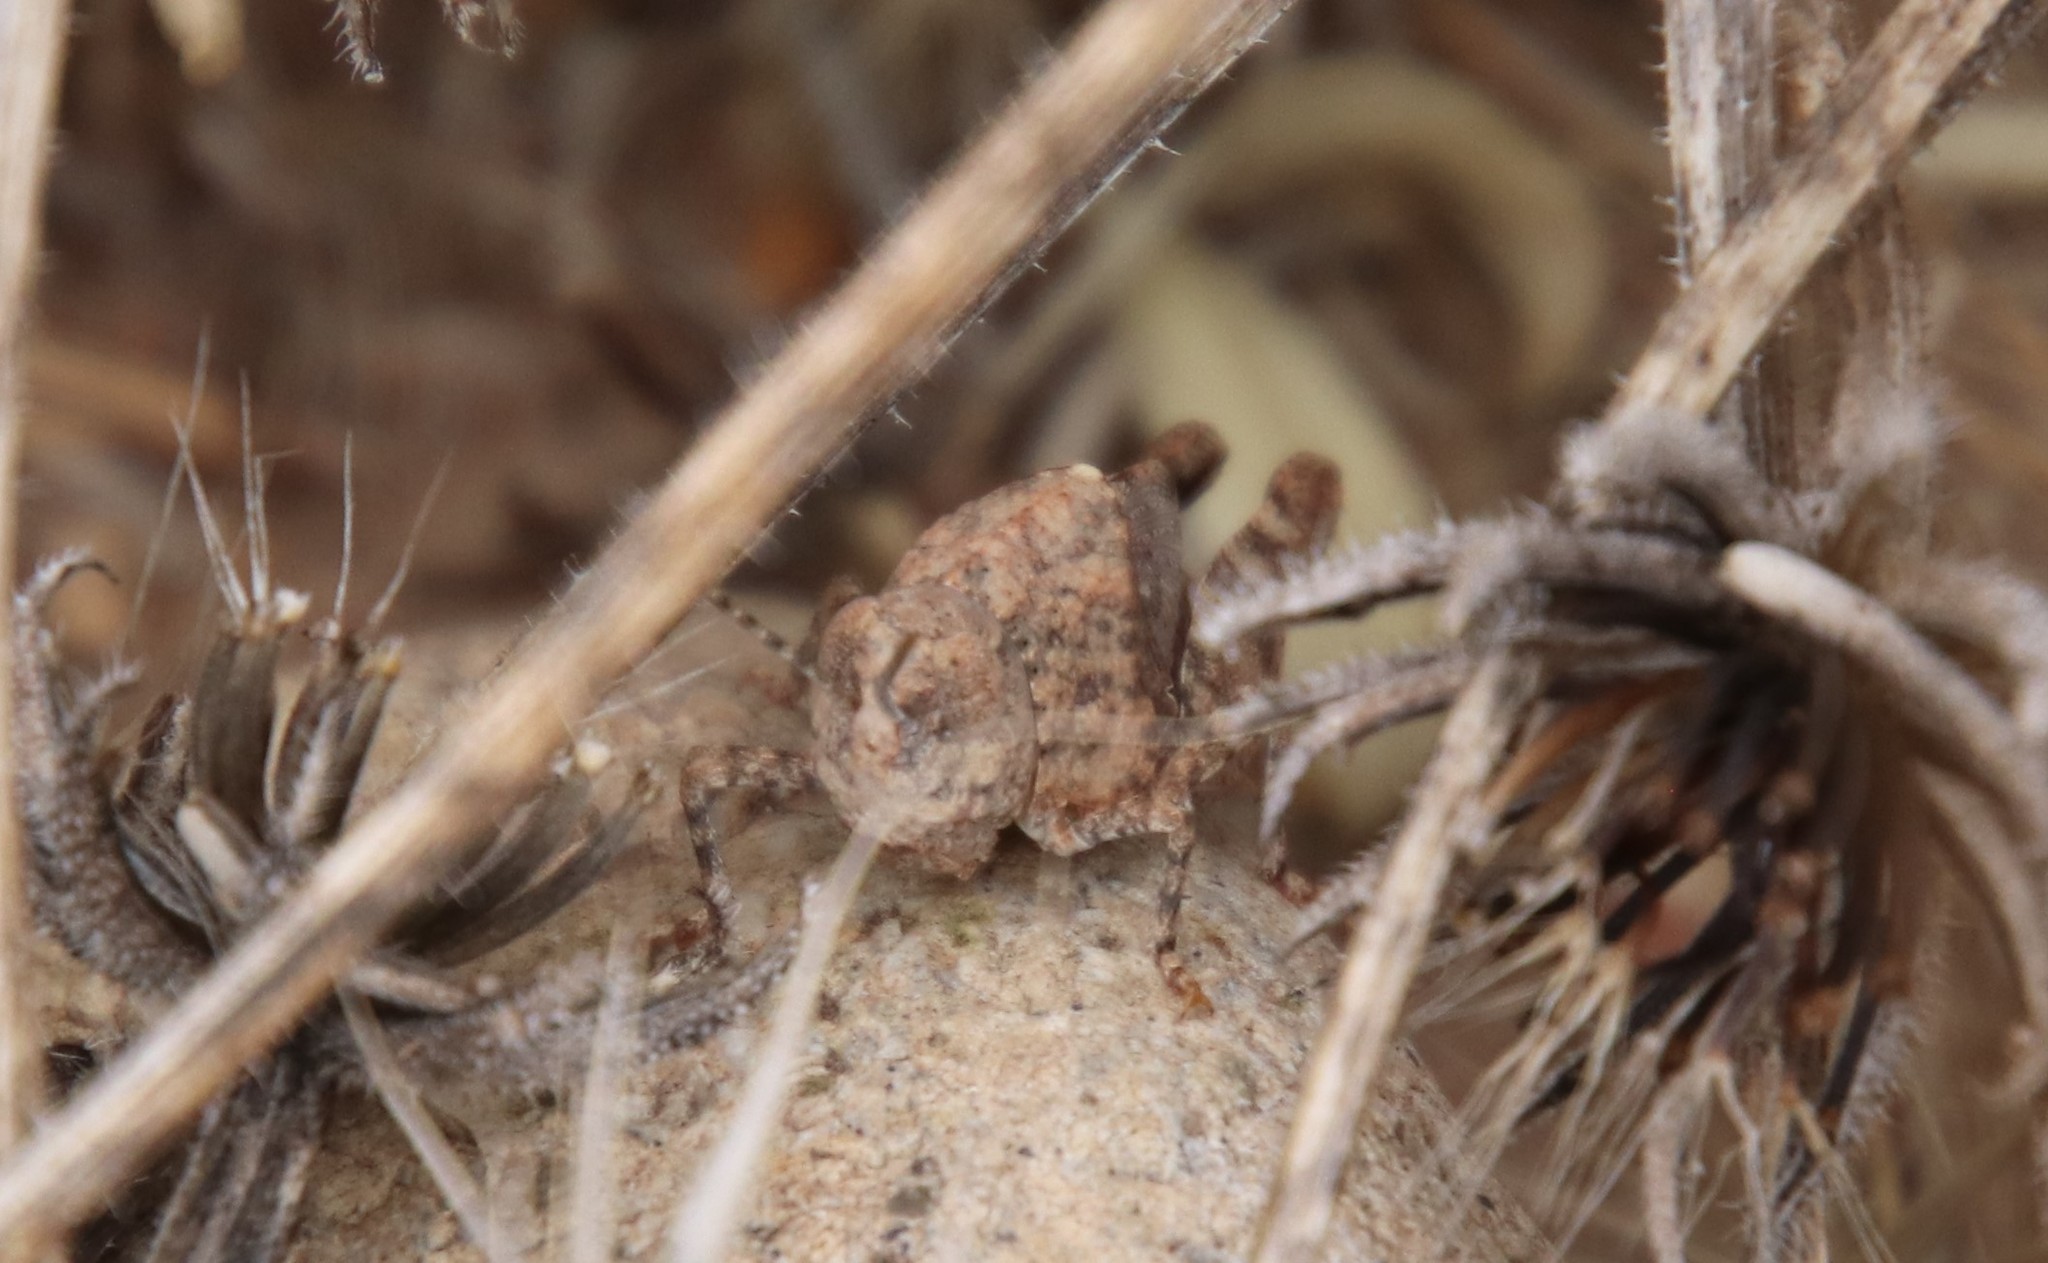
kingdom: Animalia
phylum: Arthropoda
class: Insecta
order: Orthoptera
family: Acrididae
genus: Leprus
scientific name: Leprus intermedius
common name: Saussure's blue-winged grasshopper
